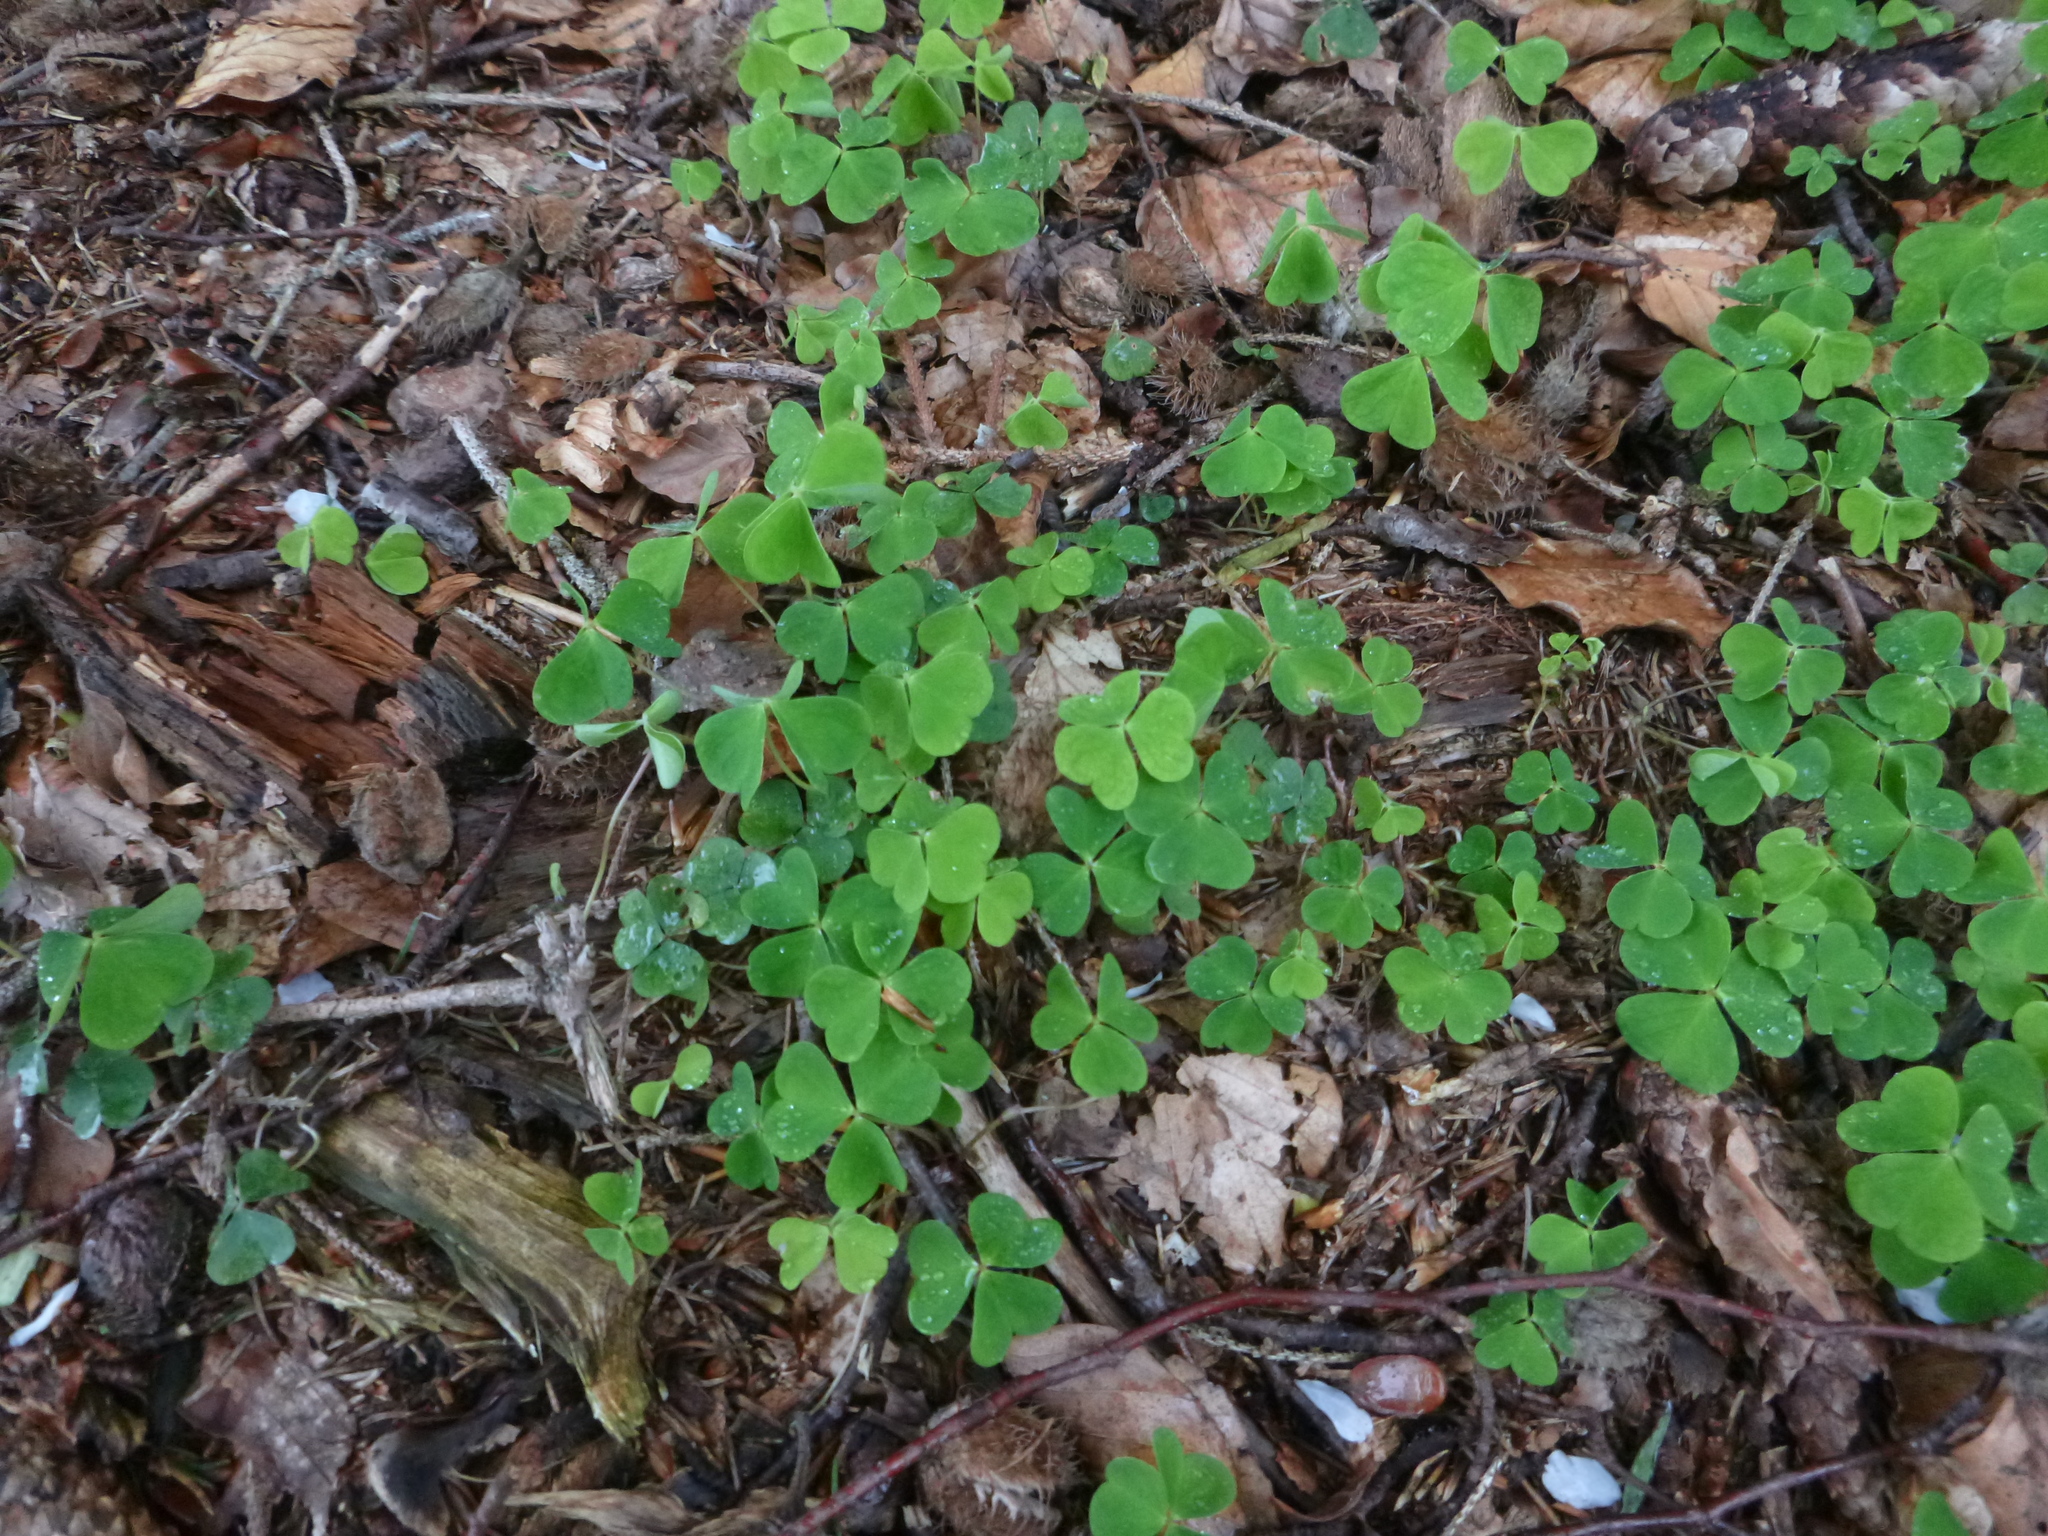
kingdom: Plantae
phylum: Tracheophyta
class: Magnoliopsida
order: Oxalidales
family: Oxalidaceae
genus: Oxalis
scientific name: Oxalis acetosella
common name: Wood-sorrel
